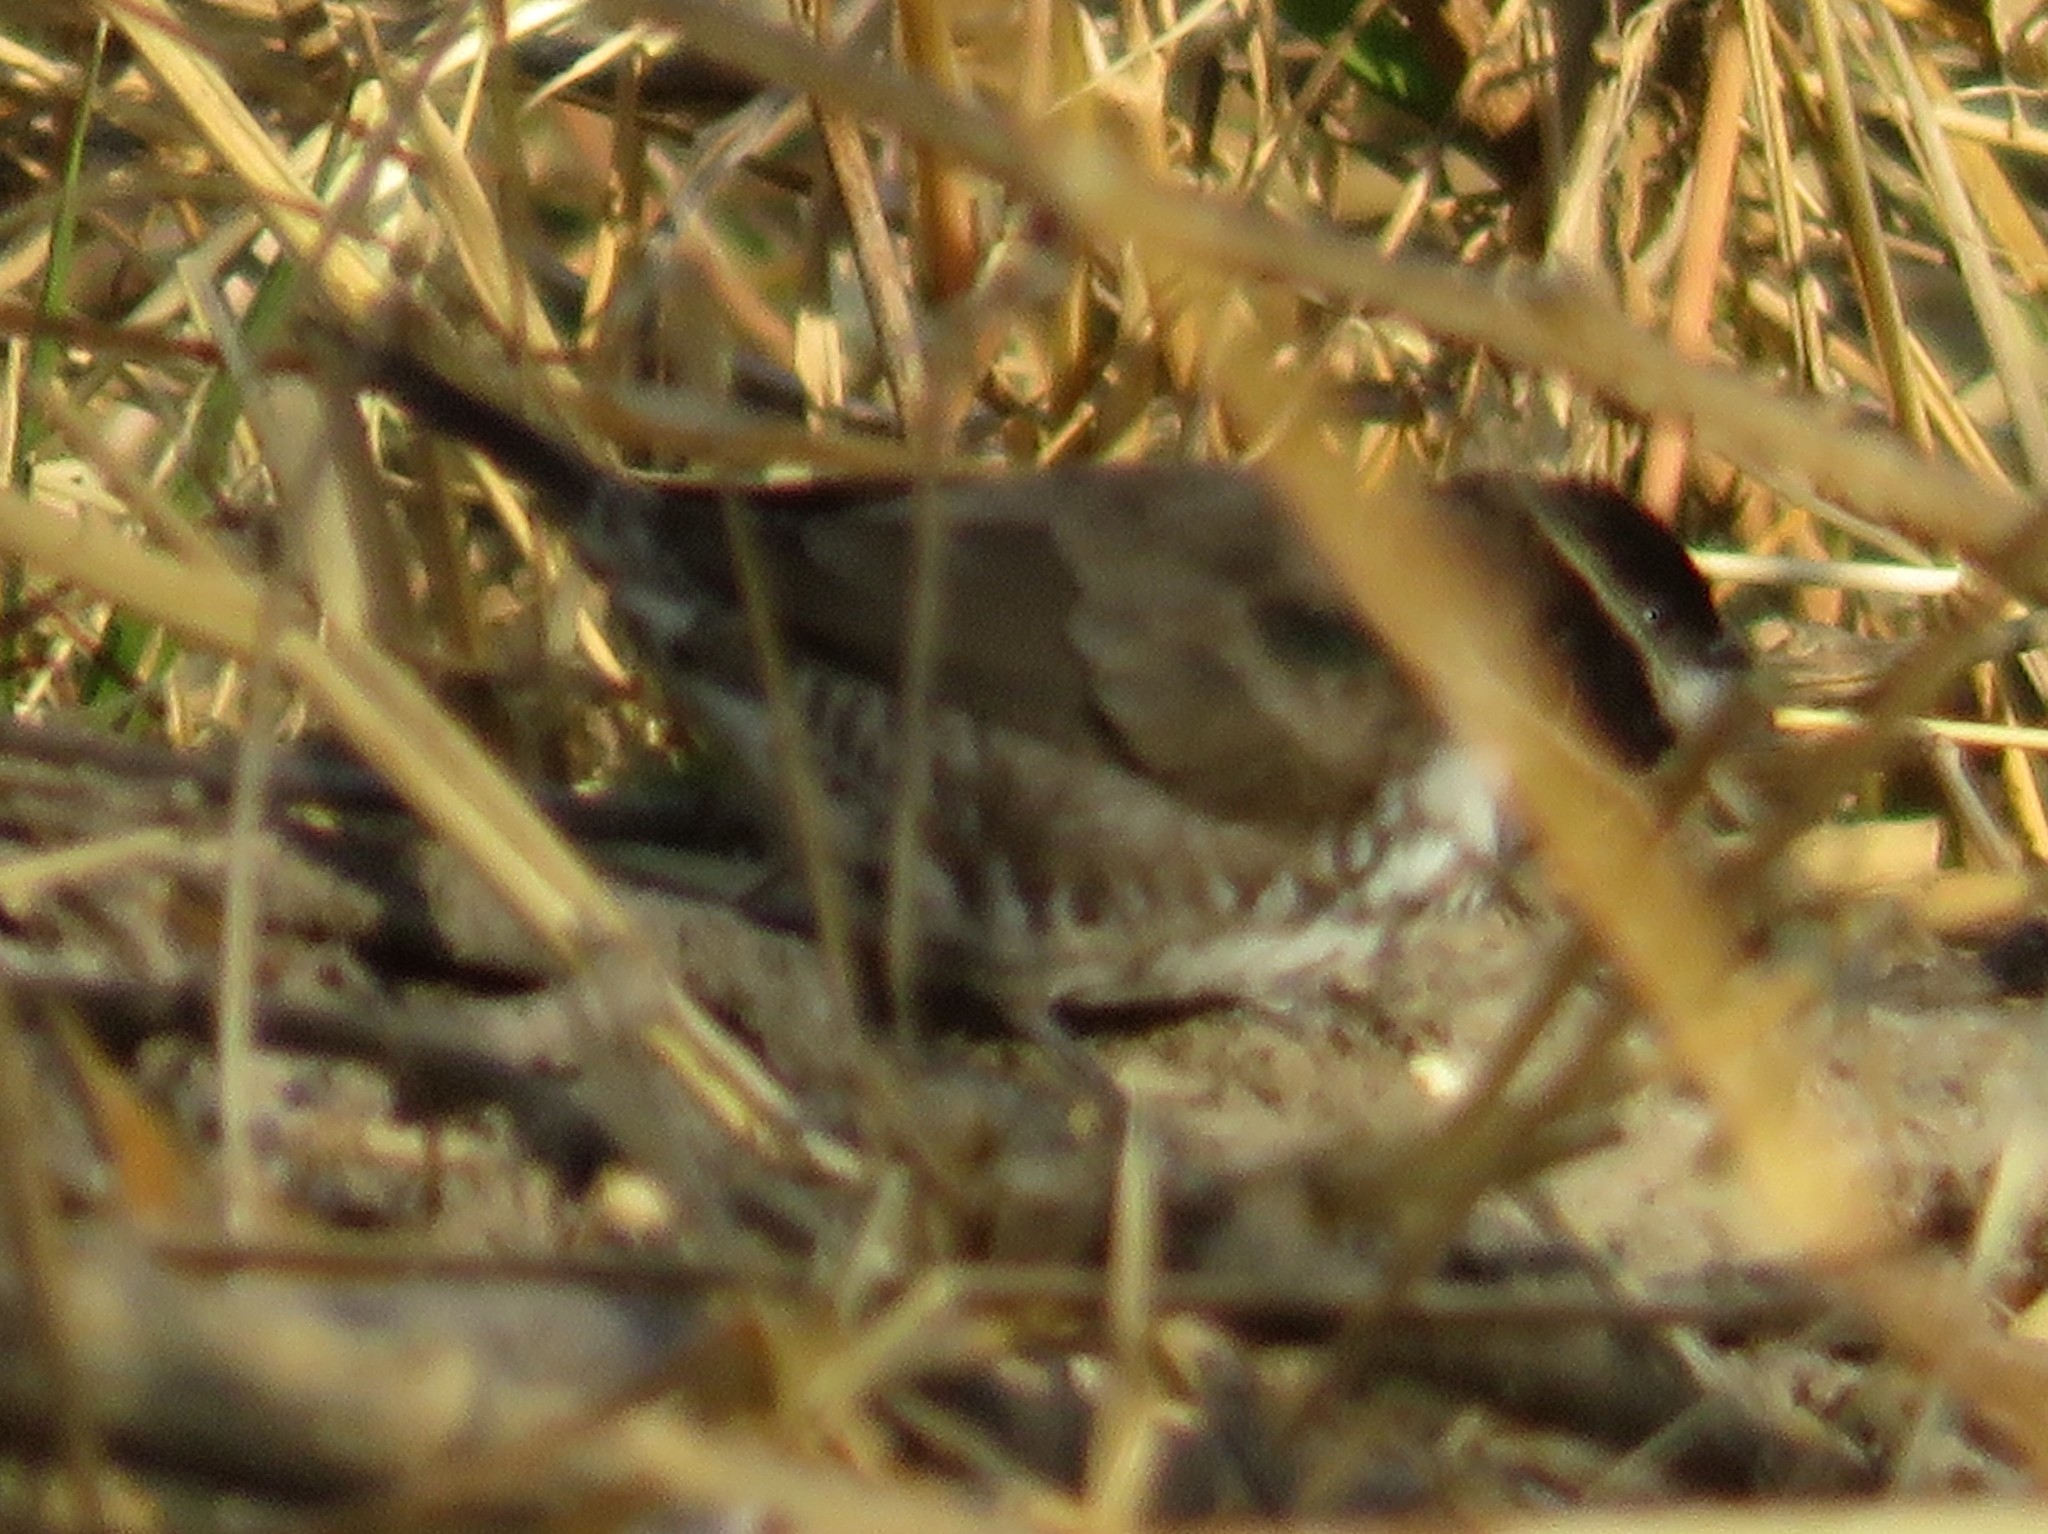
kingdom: Animalia
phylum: Chordata
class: Aves
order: Passeriformes
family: Estrildidae
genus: Lonchura
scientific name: Lonchura cucullata
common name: Bronze mannikin
